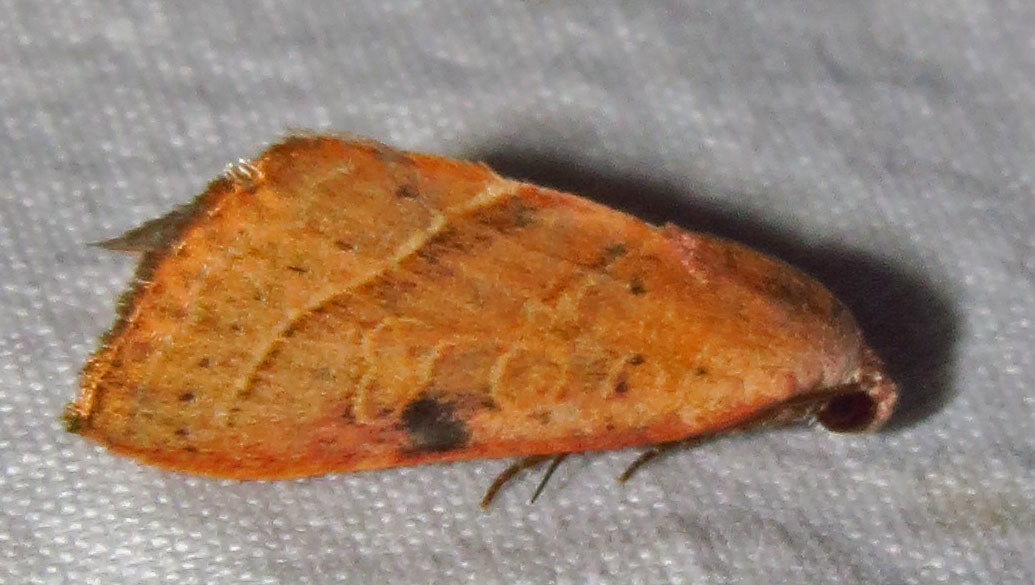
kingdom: Animalia
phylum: Arthropoda
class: Insecta
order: Lepidoptera
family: Noctuidae
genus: Galgula
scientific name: Galgula partita
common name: Wedgeling
